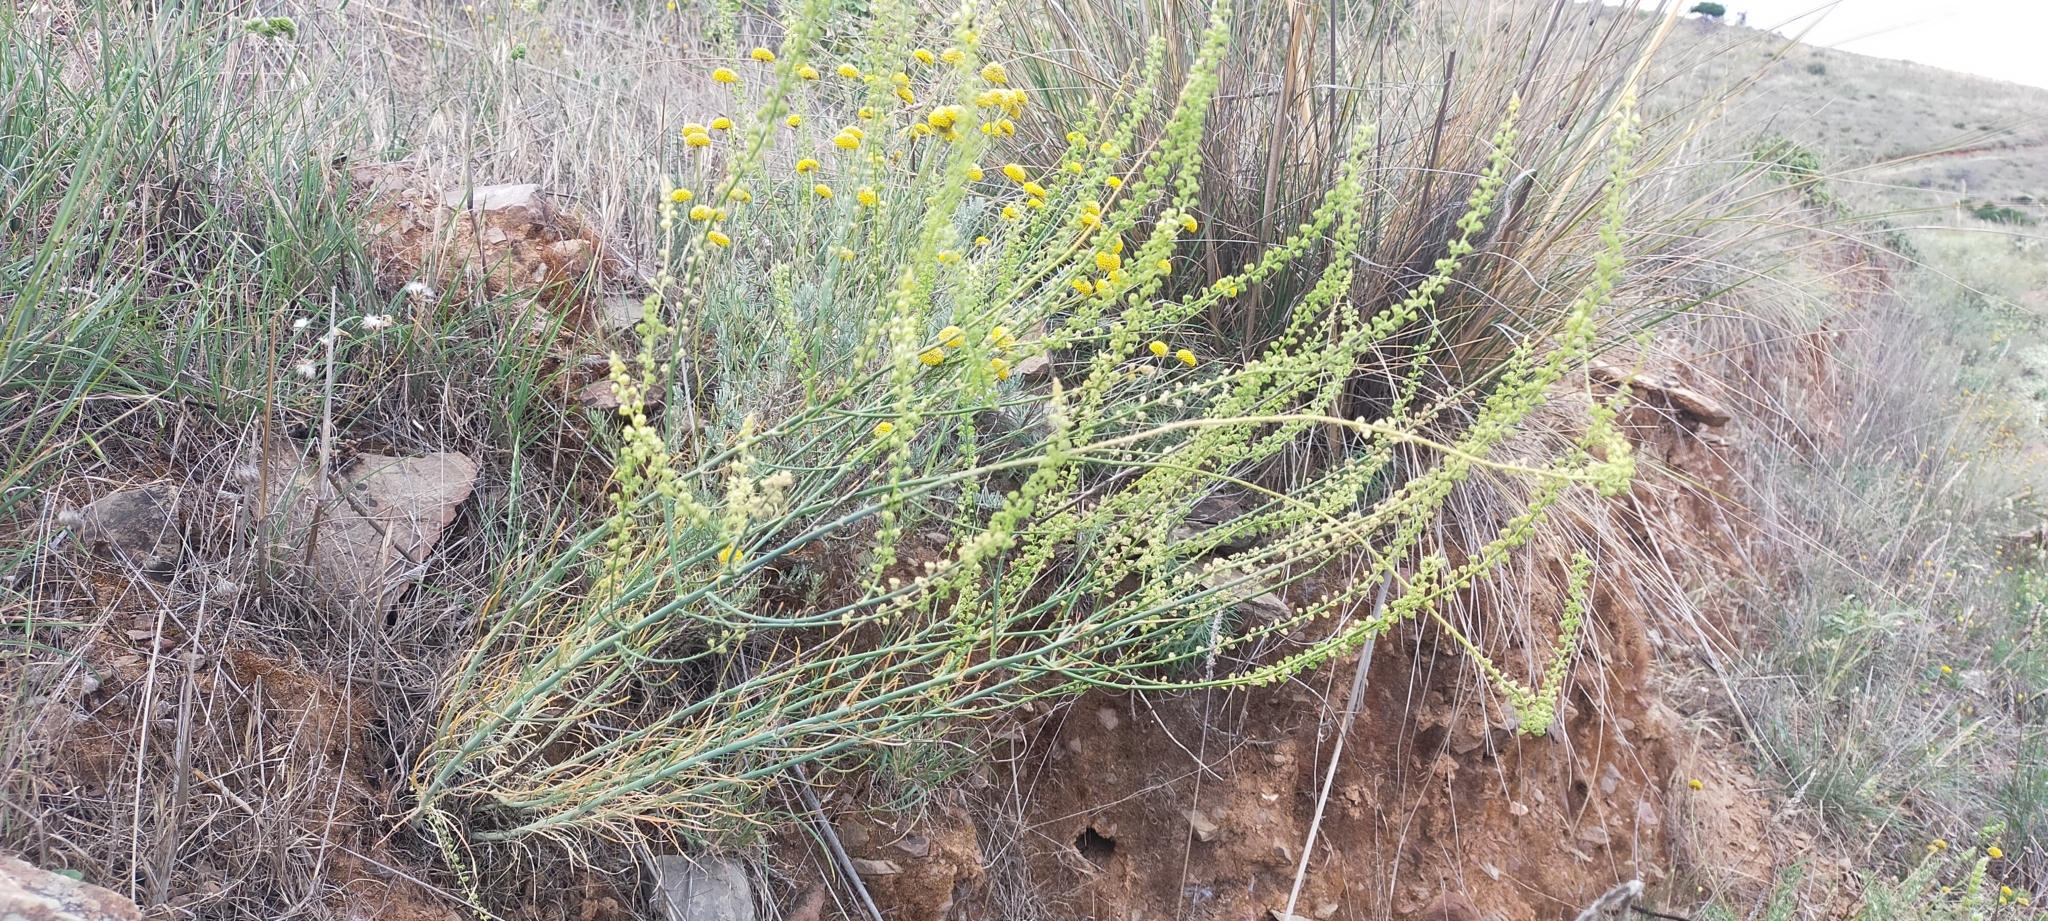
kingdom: Plantae
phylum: Tracheophyta
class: Magnoliopsida
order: Brassicales
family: Resedaceae
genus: Reseda
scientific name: Reseda virgata
